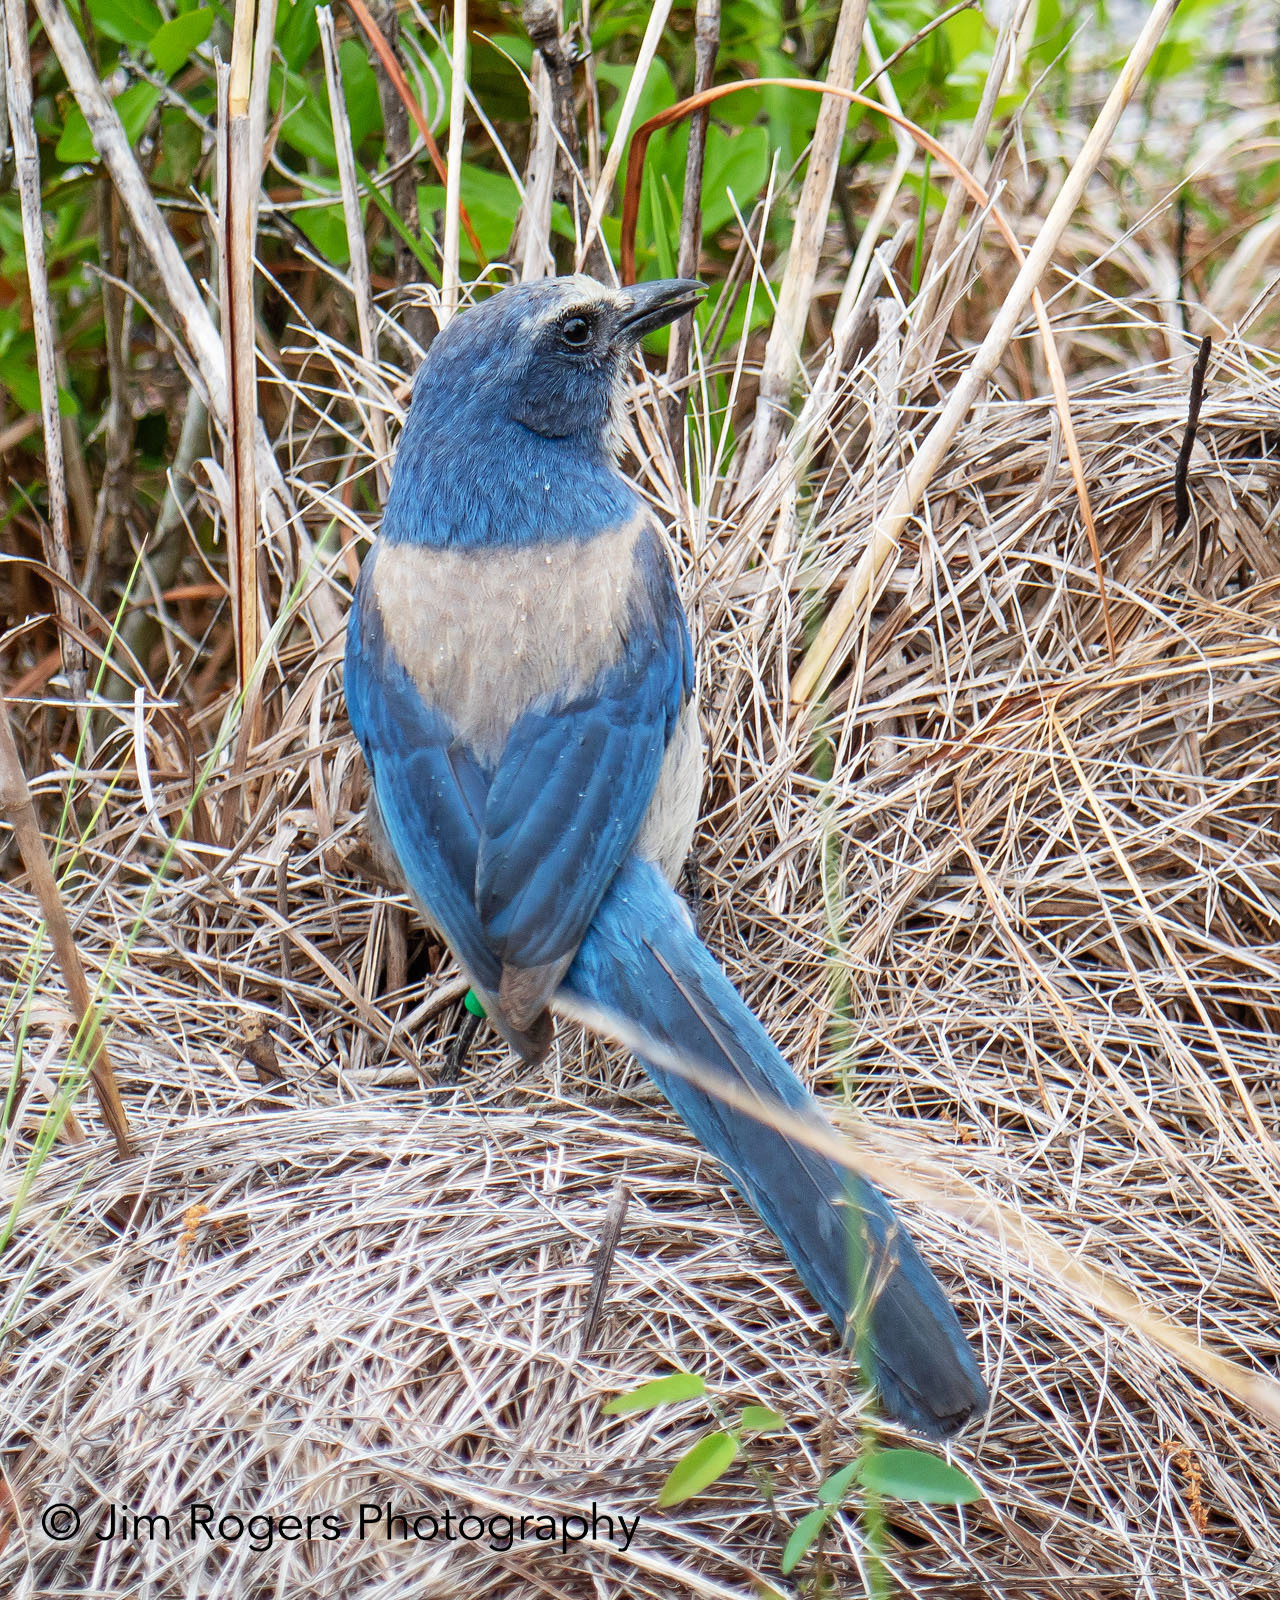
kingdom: Animalia
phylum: Chordata
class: Aves
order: Passeriformes
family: Corvidae
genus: Aphelocoma
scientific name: Aphelocoma coerulescens
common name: Florida scrub jay
